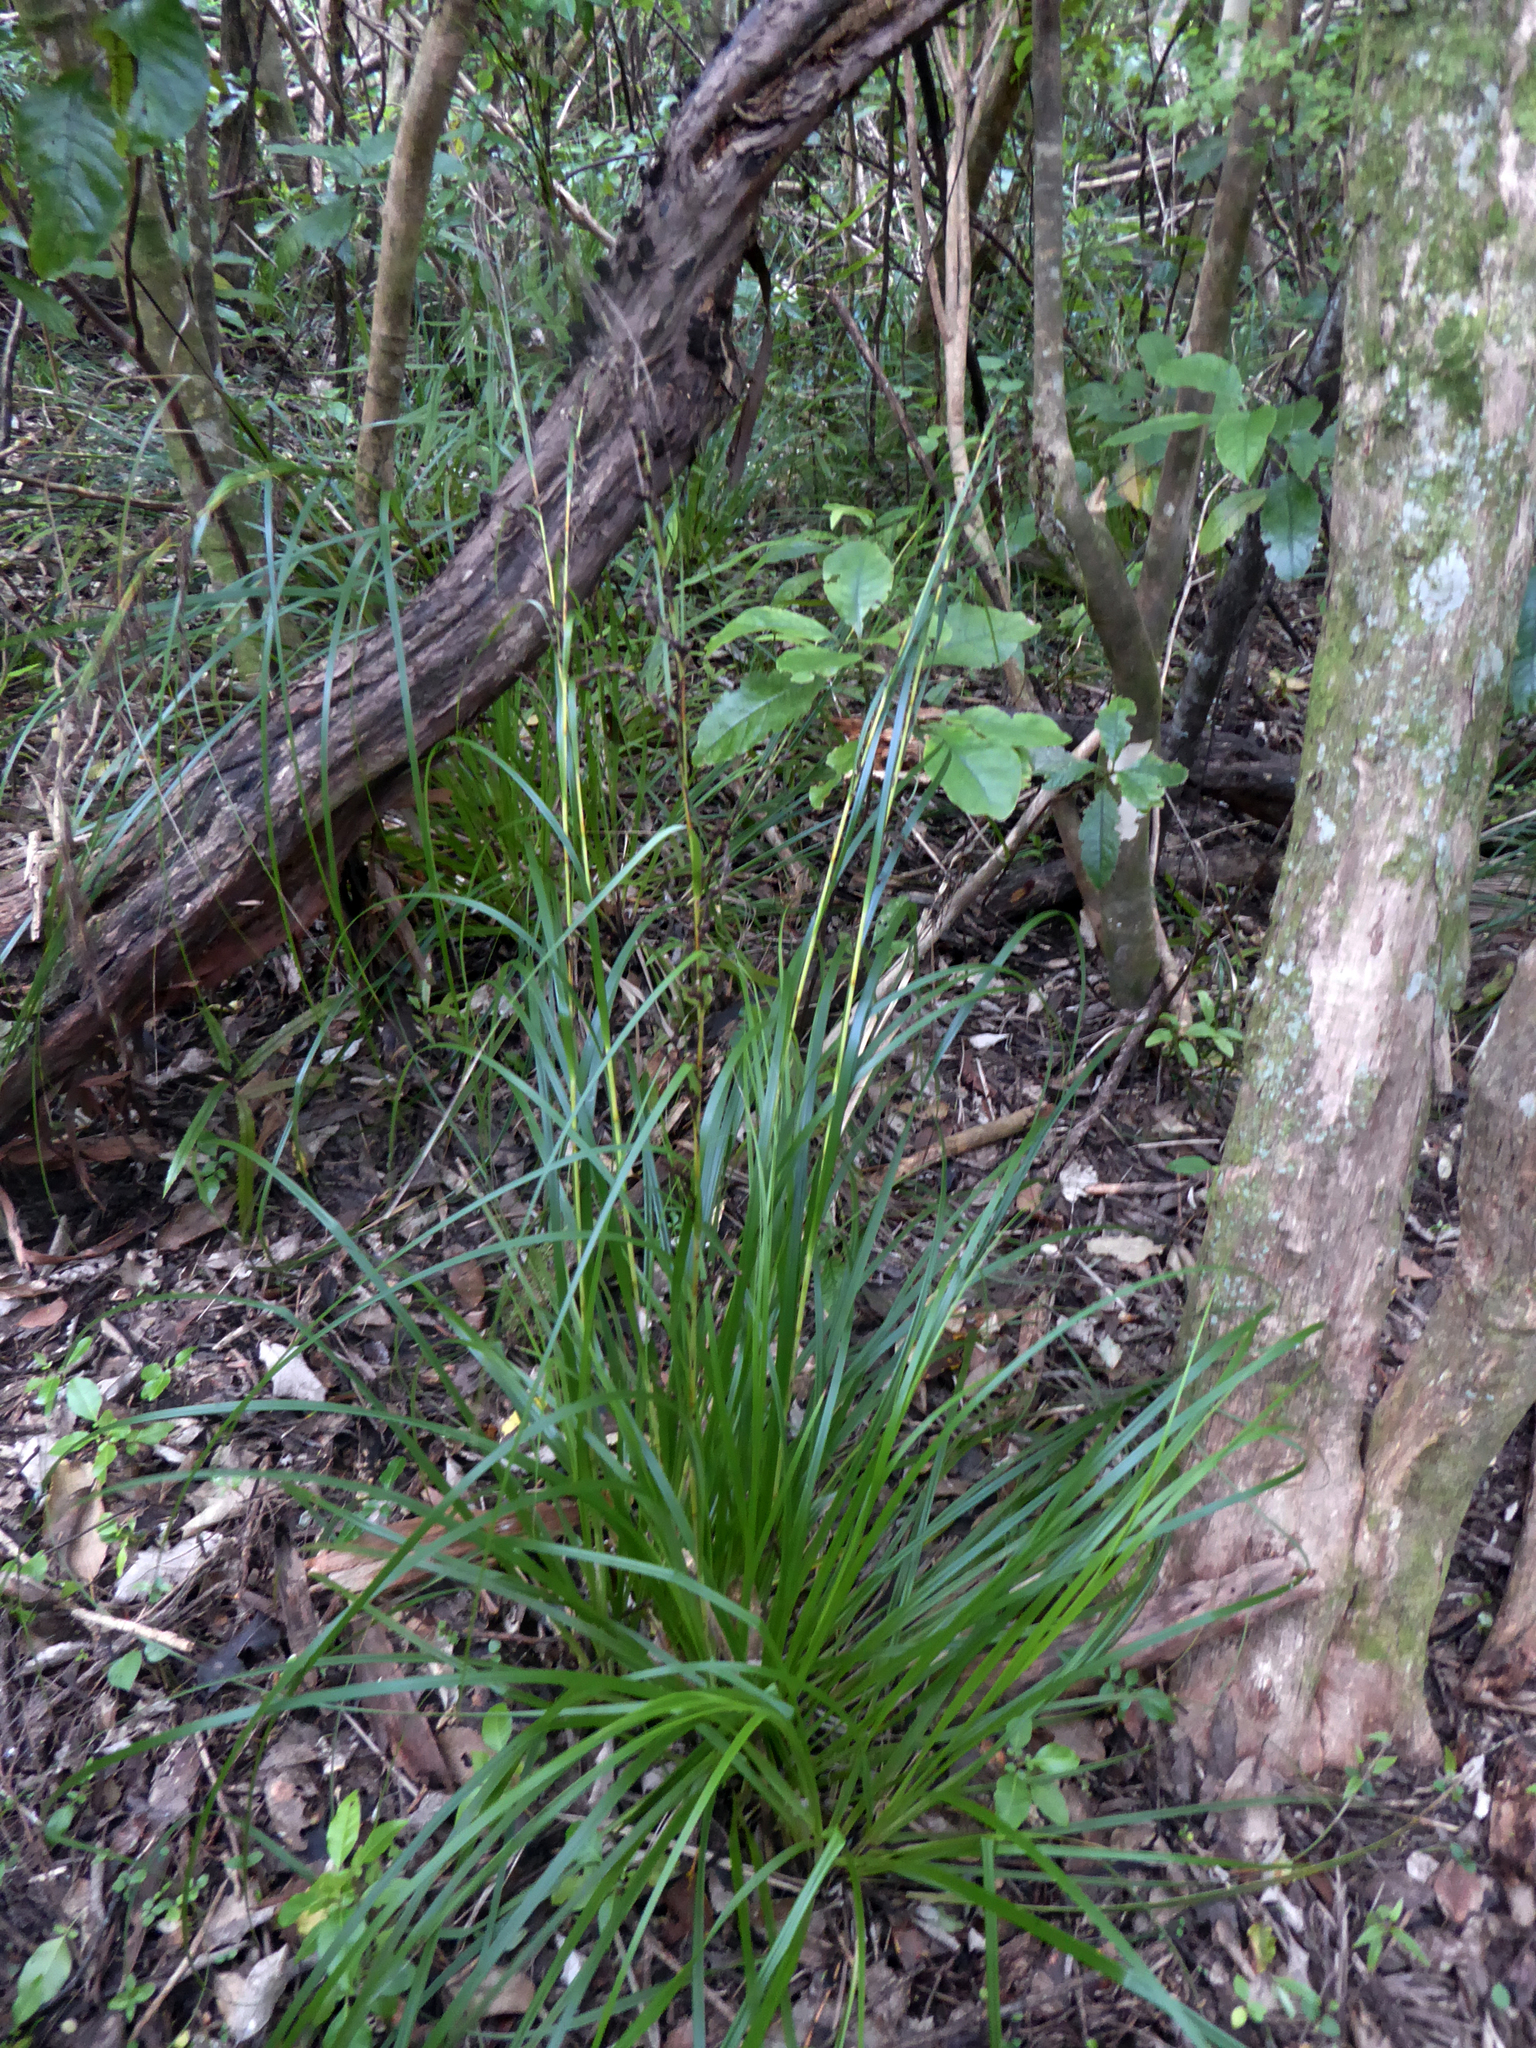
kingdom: Plantae
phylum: Tracheophyta
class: Liliopsida
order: Poales
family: Cyperaceae
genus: Gahnia
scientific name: Gahnia pauciflora
